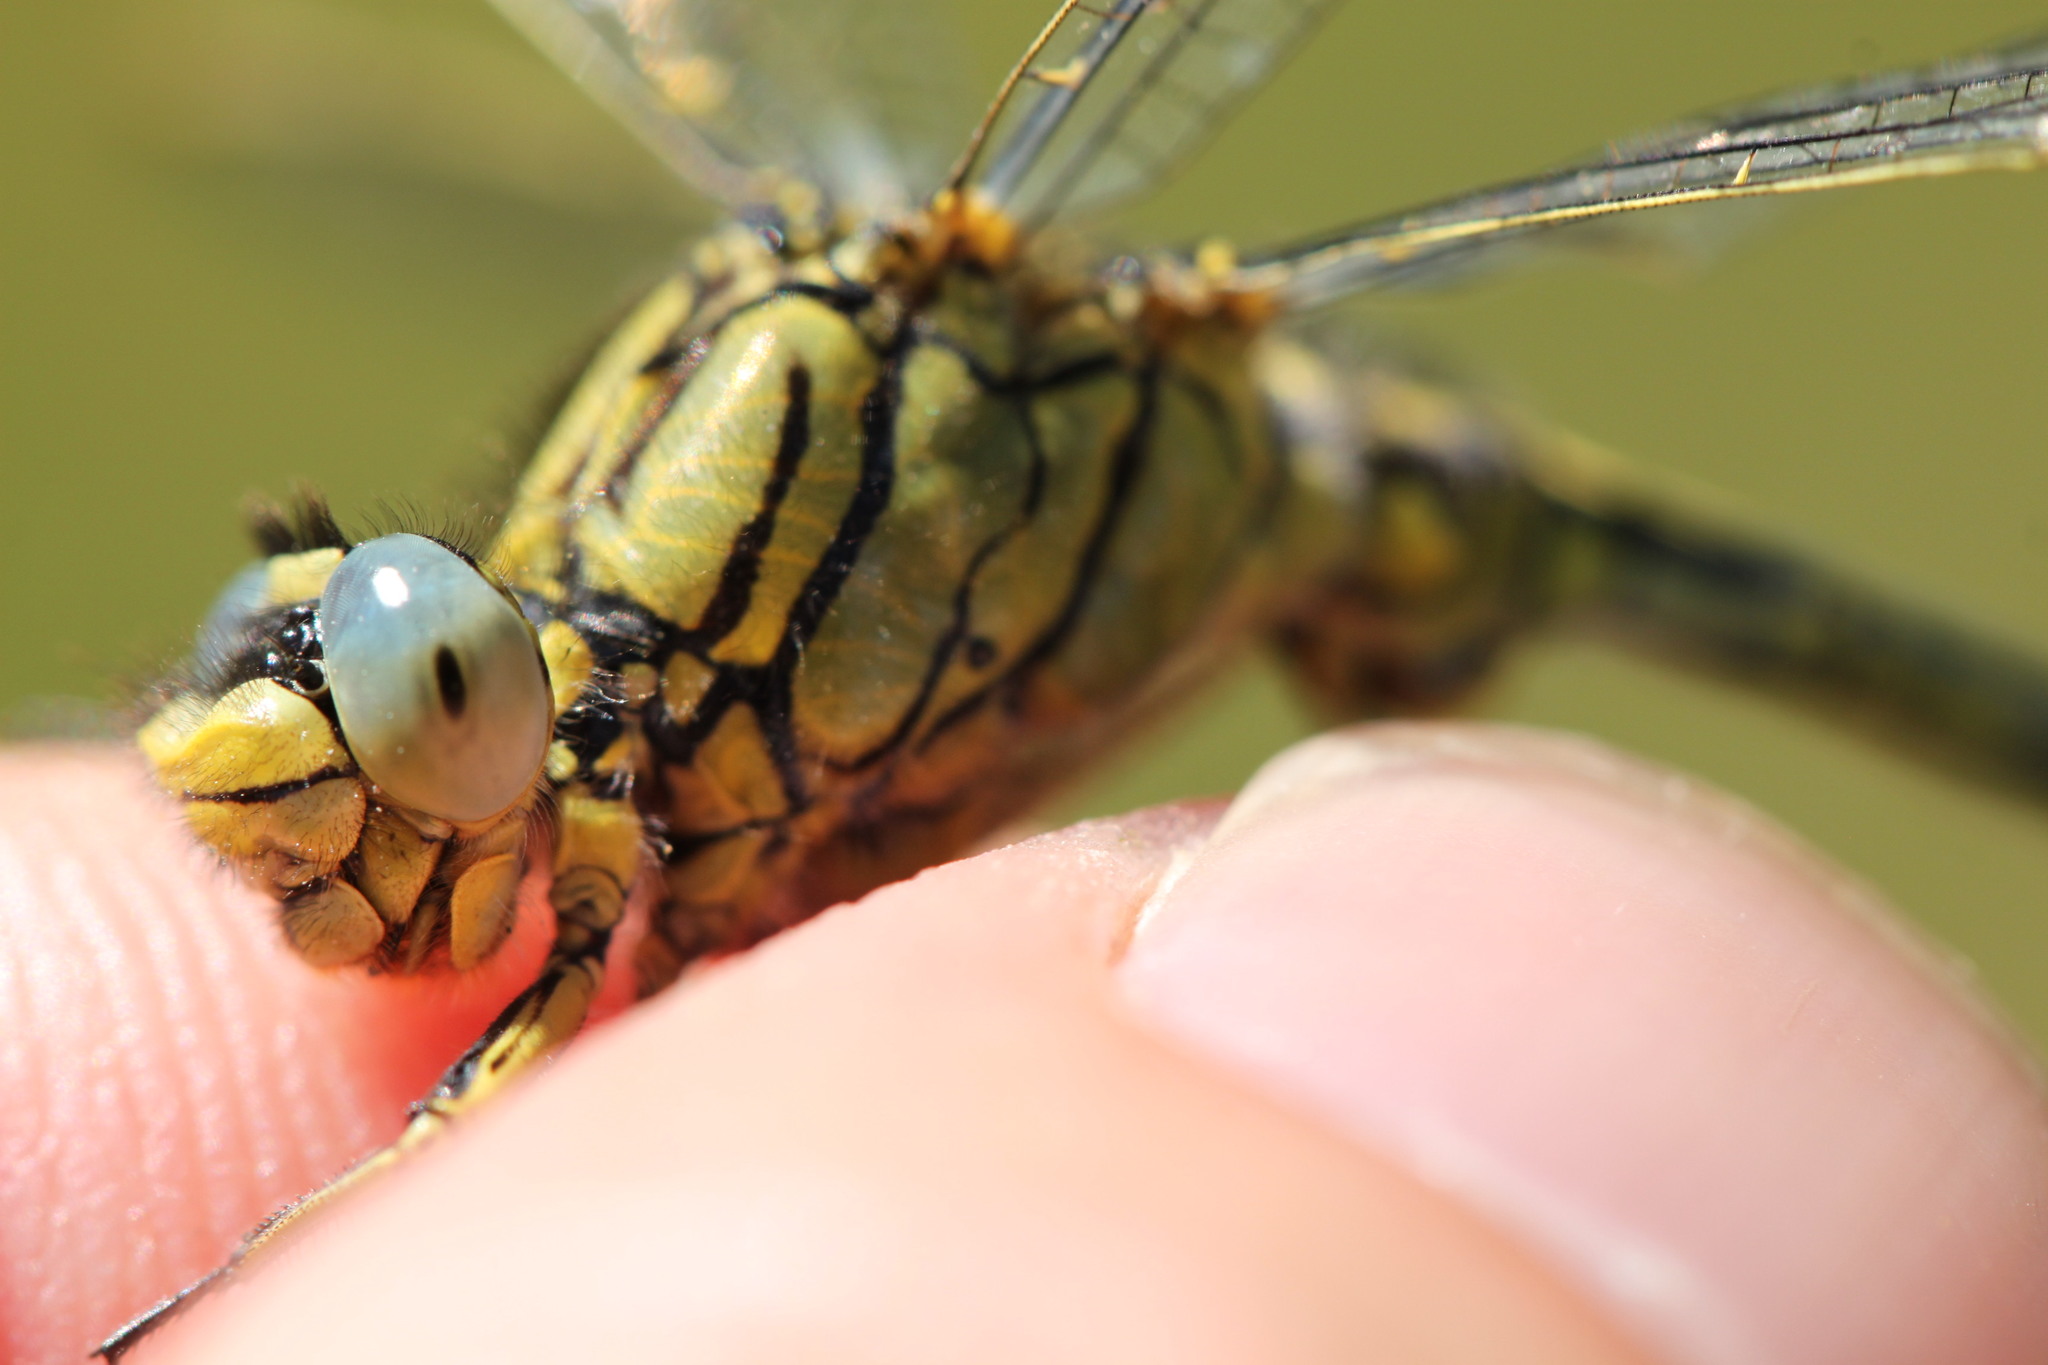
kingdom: Animalia
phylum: Arthropoda
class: Insecta
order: Odonata
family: Gomphidae
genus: Gomphus
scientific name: Gomphus pulchellus
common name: Western clubtail
